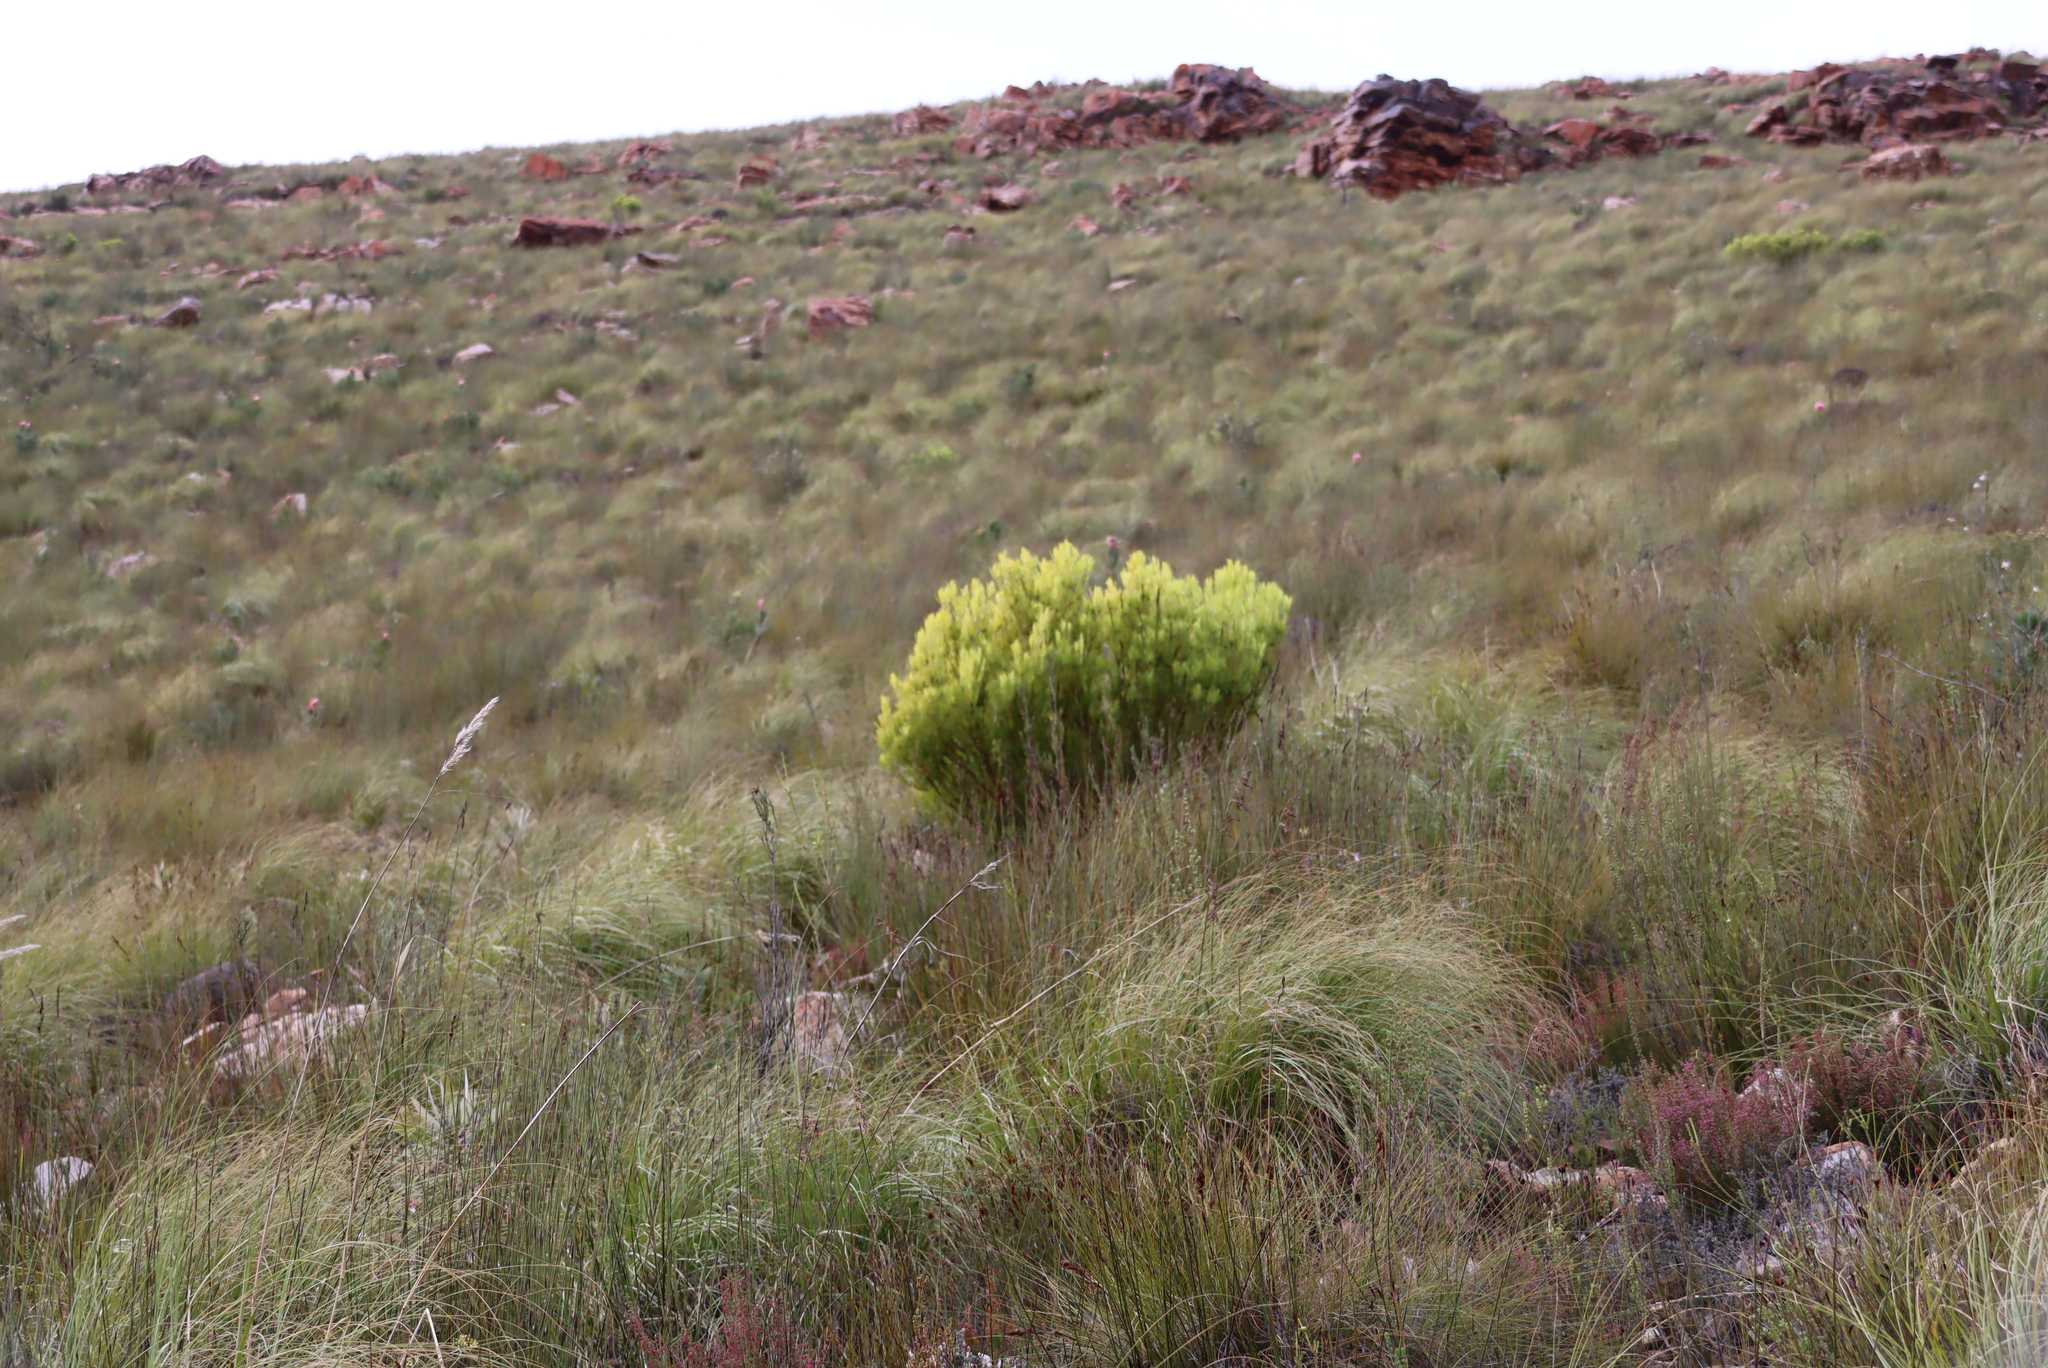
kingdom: Plantae
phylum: Tracheophyta
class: Magnoliopsida
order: Proteales
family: Proteaceae
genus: Leucadendron
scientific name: Leucadendron salignum
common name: Common sunshine conebush
